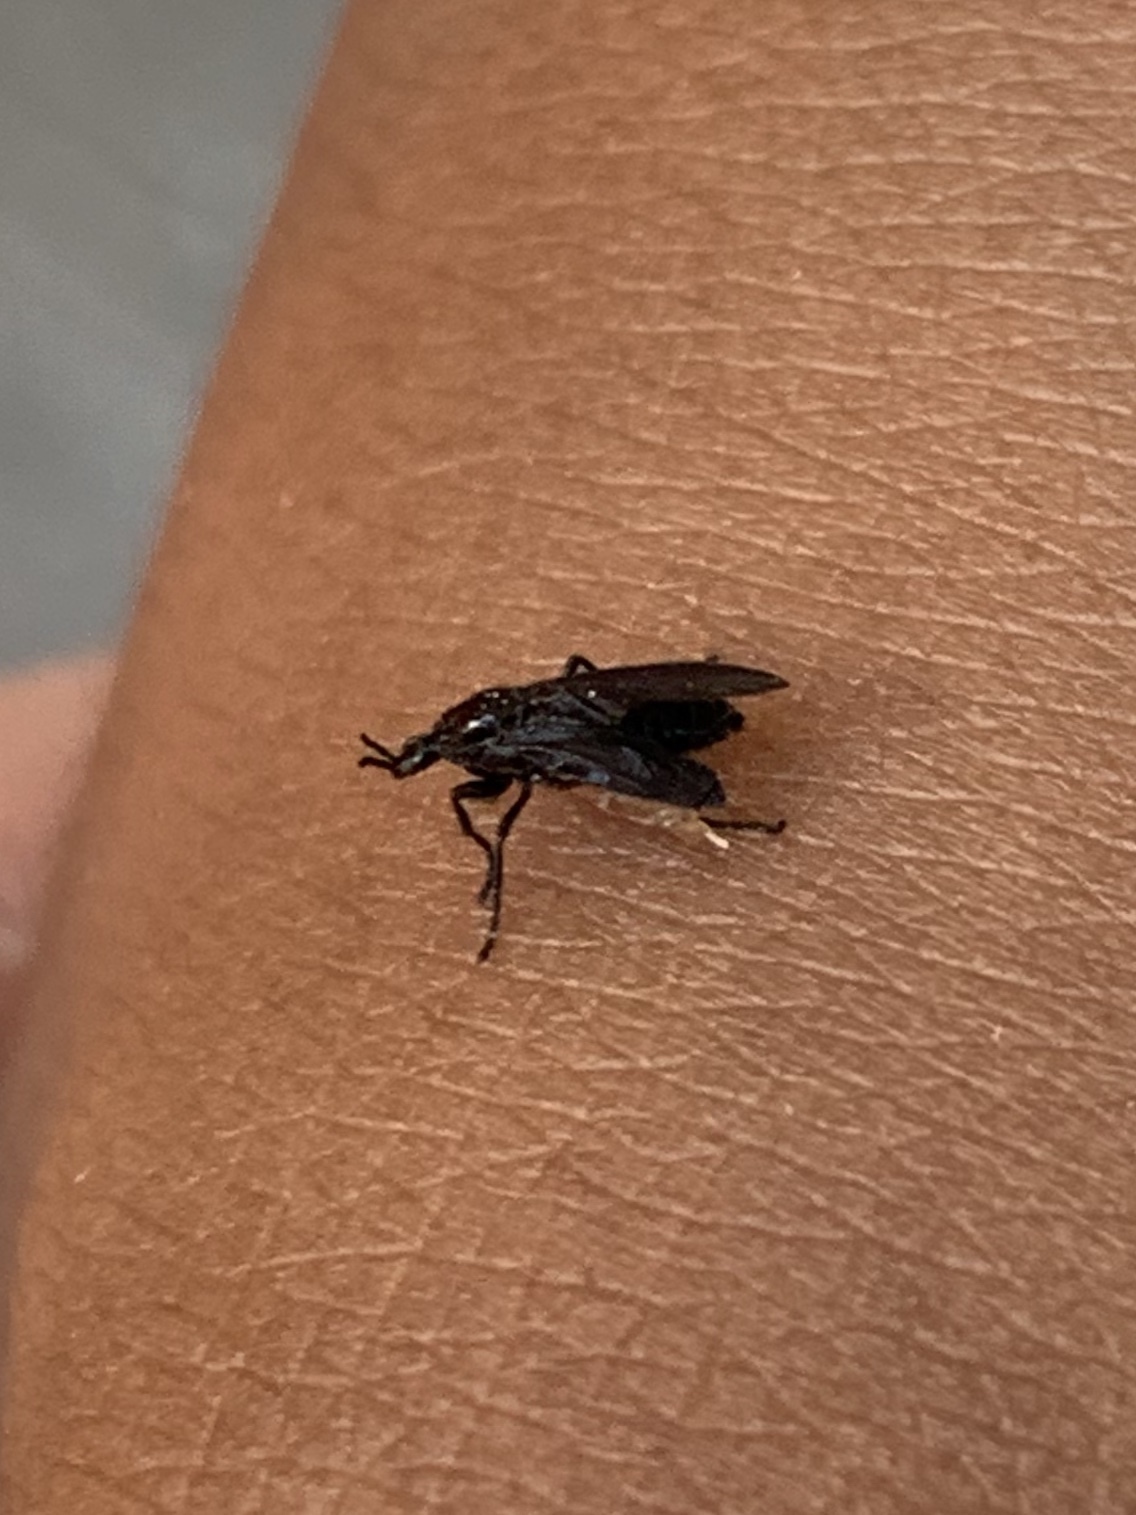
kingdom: Animalia
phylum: Arthropoda
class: Insecta
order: Diptera
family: Bibionidae
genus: Dilophus
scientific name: Dilophus orbatus
